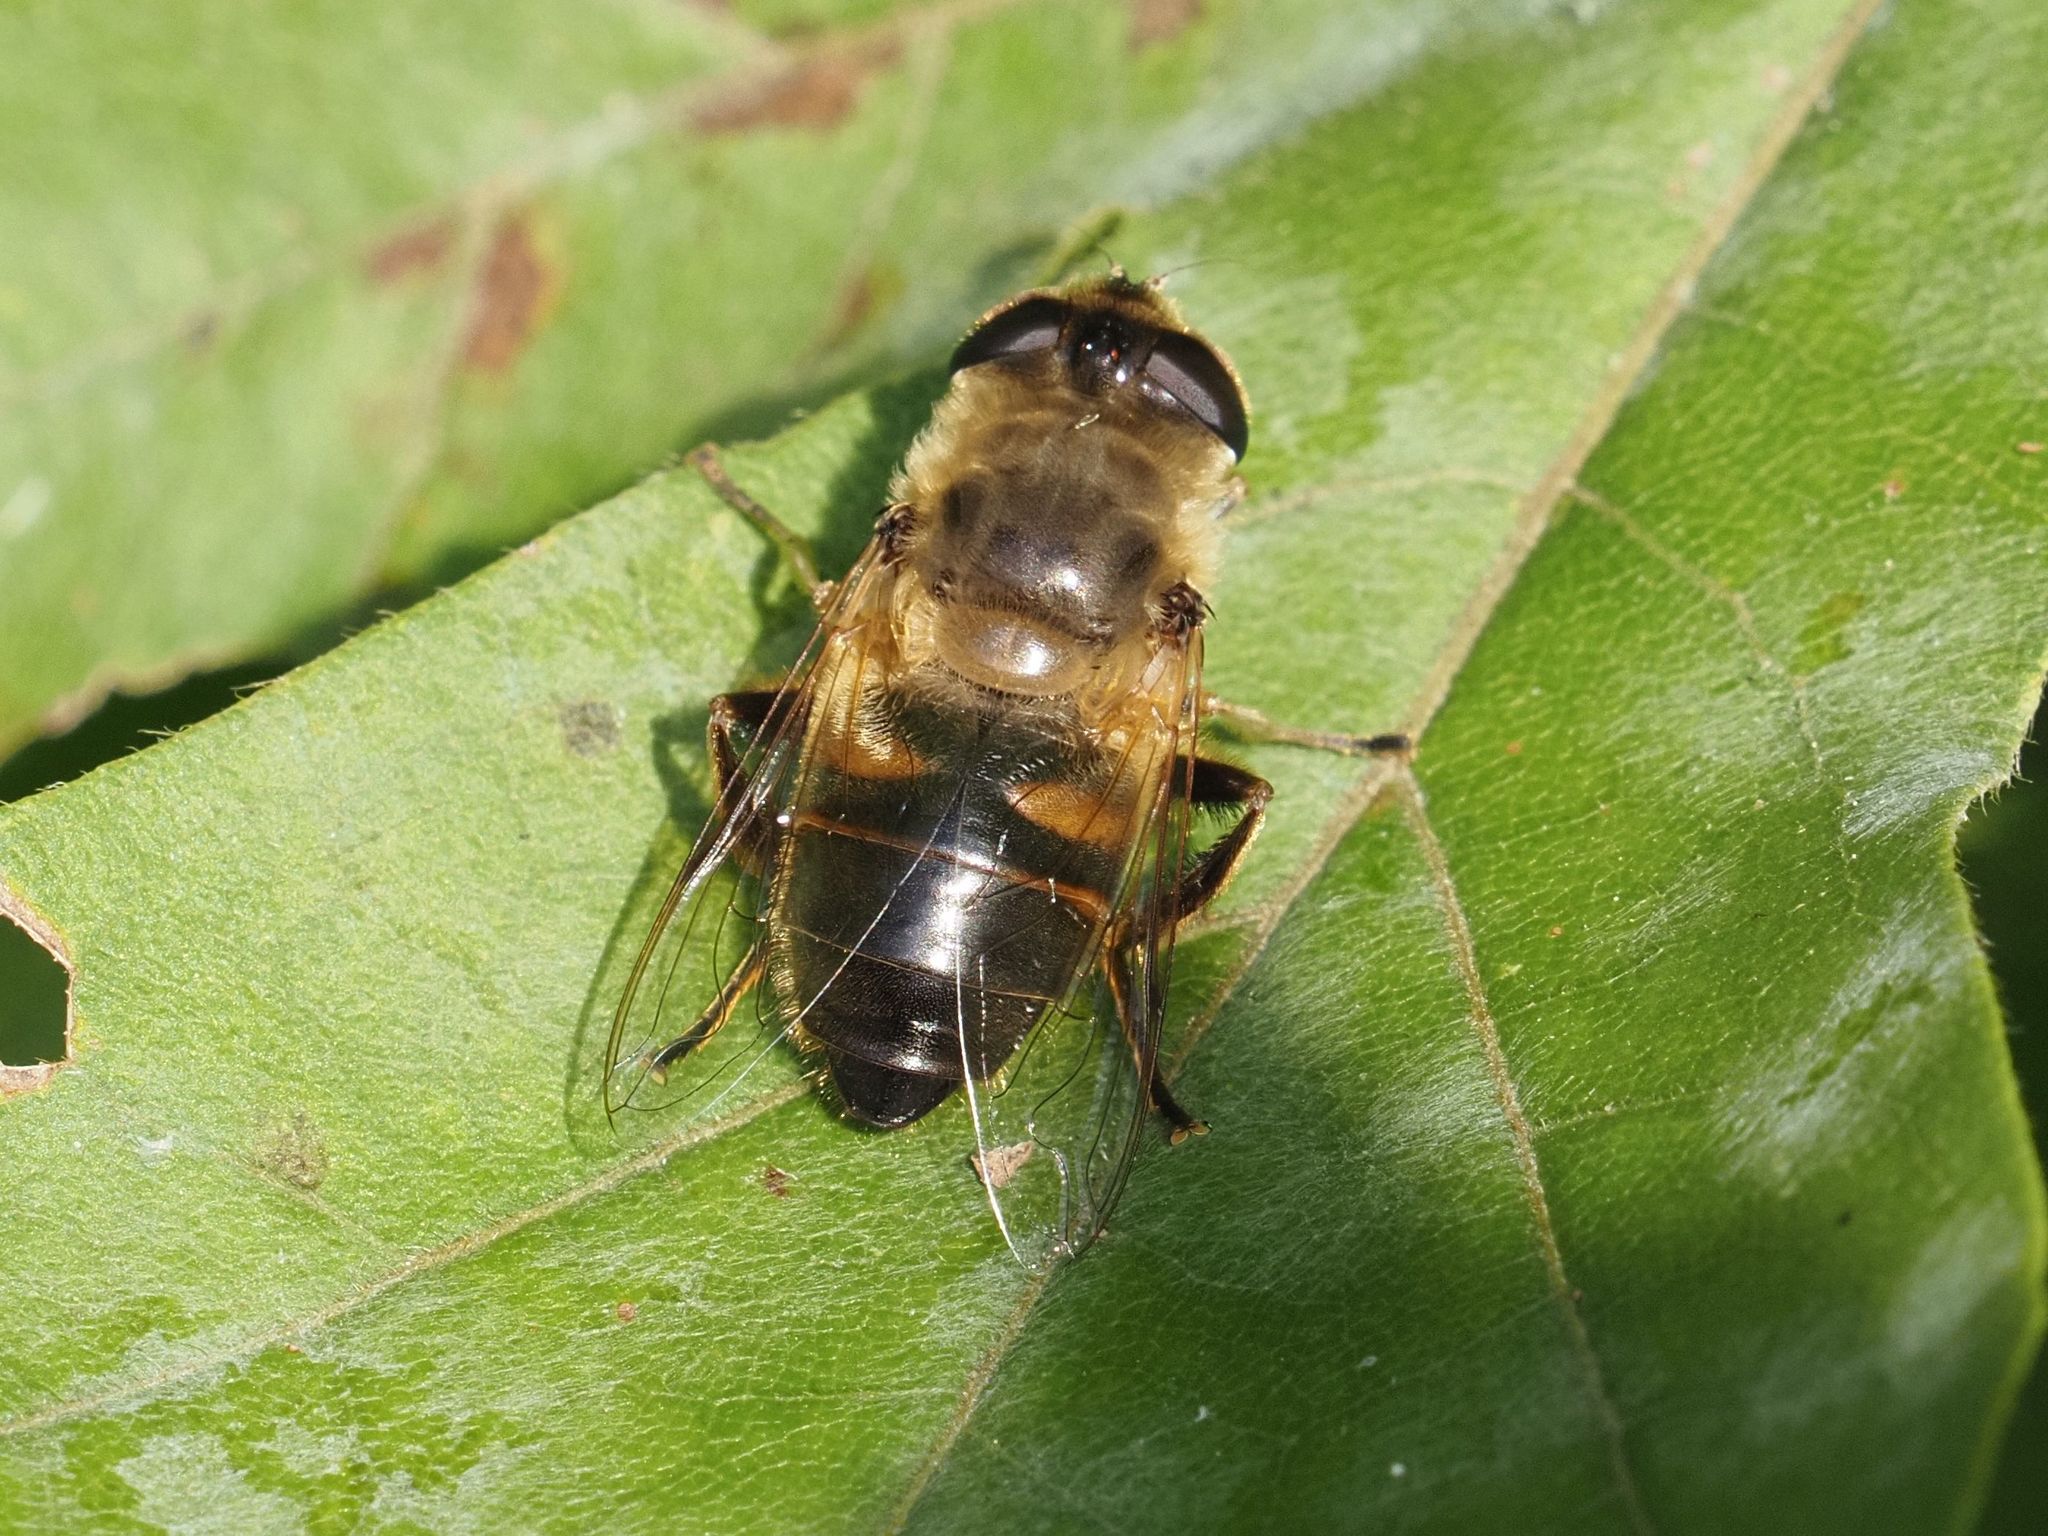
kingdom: Animalia
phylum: Arthropoda
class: Insecta
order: Diptera
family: Syrphidae
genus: Eristalis
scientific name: Eristalis tenax
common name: Drone fly
